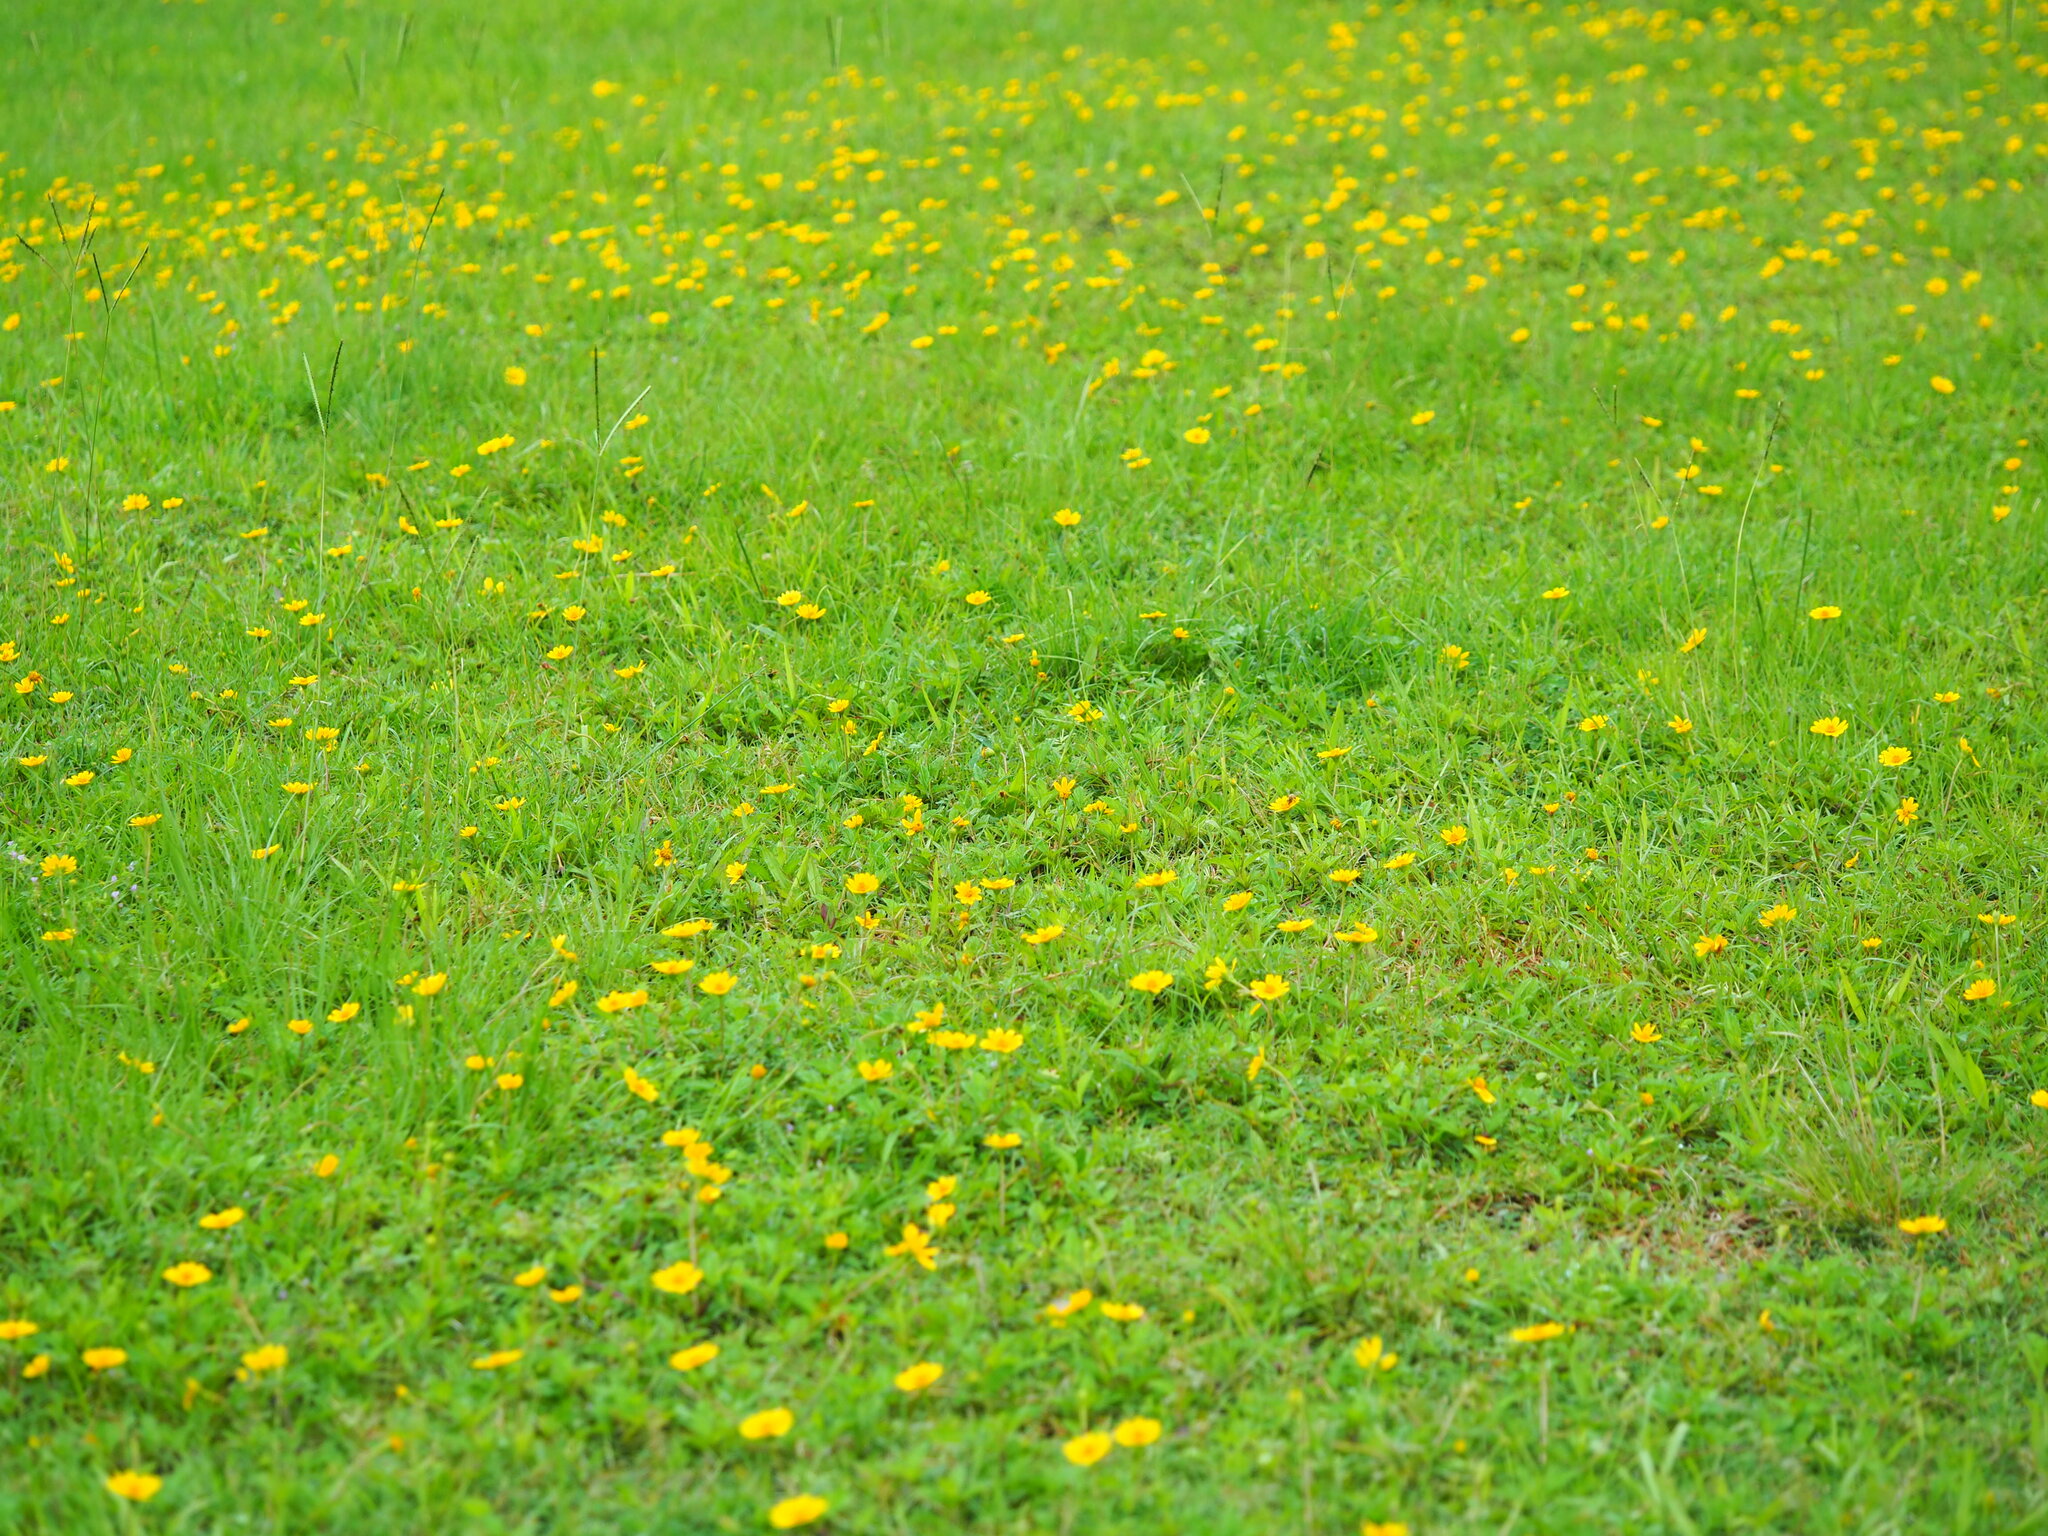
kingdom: Plantae
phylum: Tracheophyta
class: Magnoliopsida
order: Asterales
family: Asteraceae
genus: Sphagneticola
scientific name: Sphagneticola trilobata
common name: Bay biscayne creeping-oxeye
